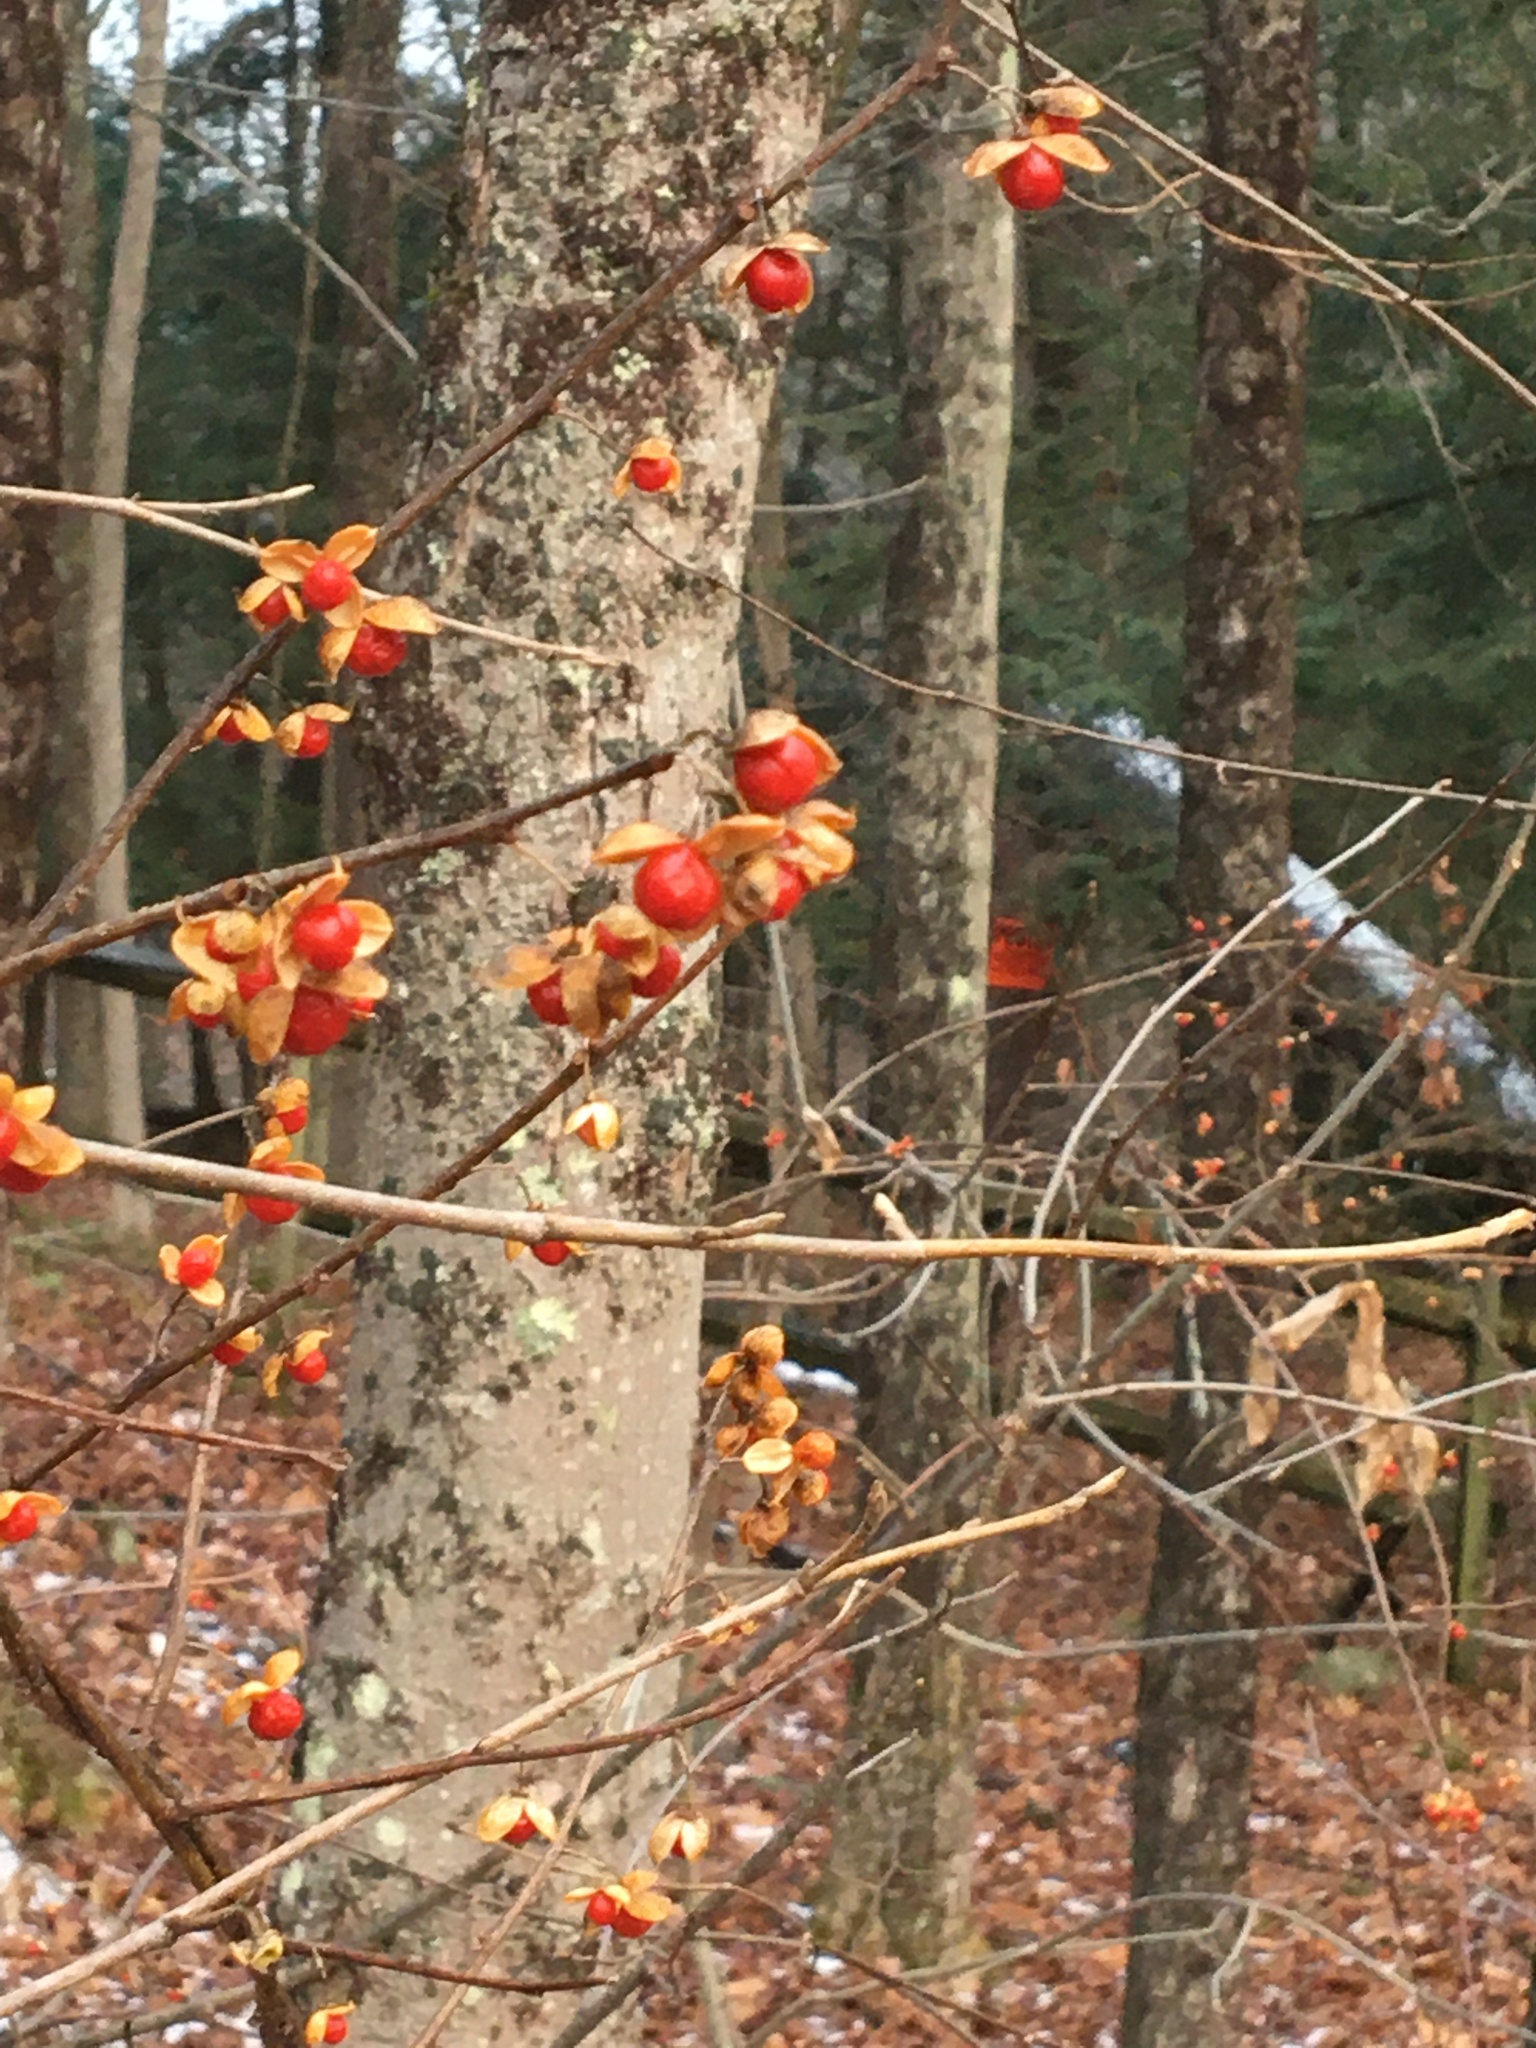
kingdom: Plantae
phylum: Tracheophyta
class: Magnoliopsida
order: Celastrales
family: Celastraceae
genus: Celastrus
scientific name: Celastrus orbiculatus
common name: Oriental bittersweet
